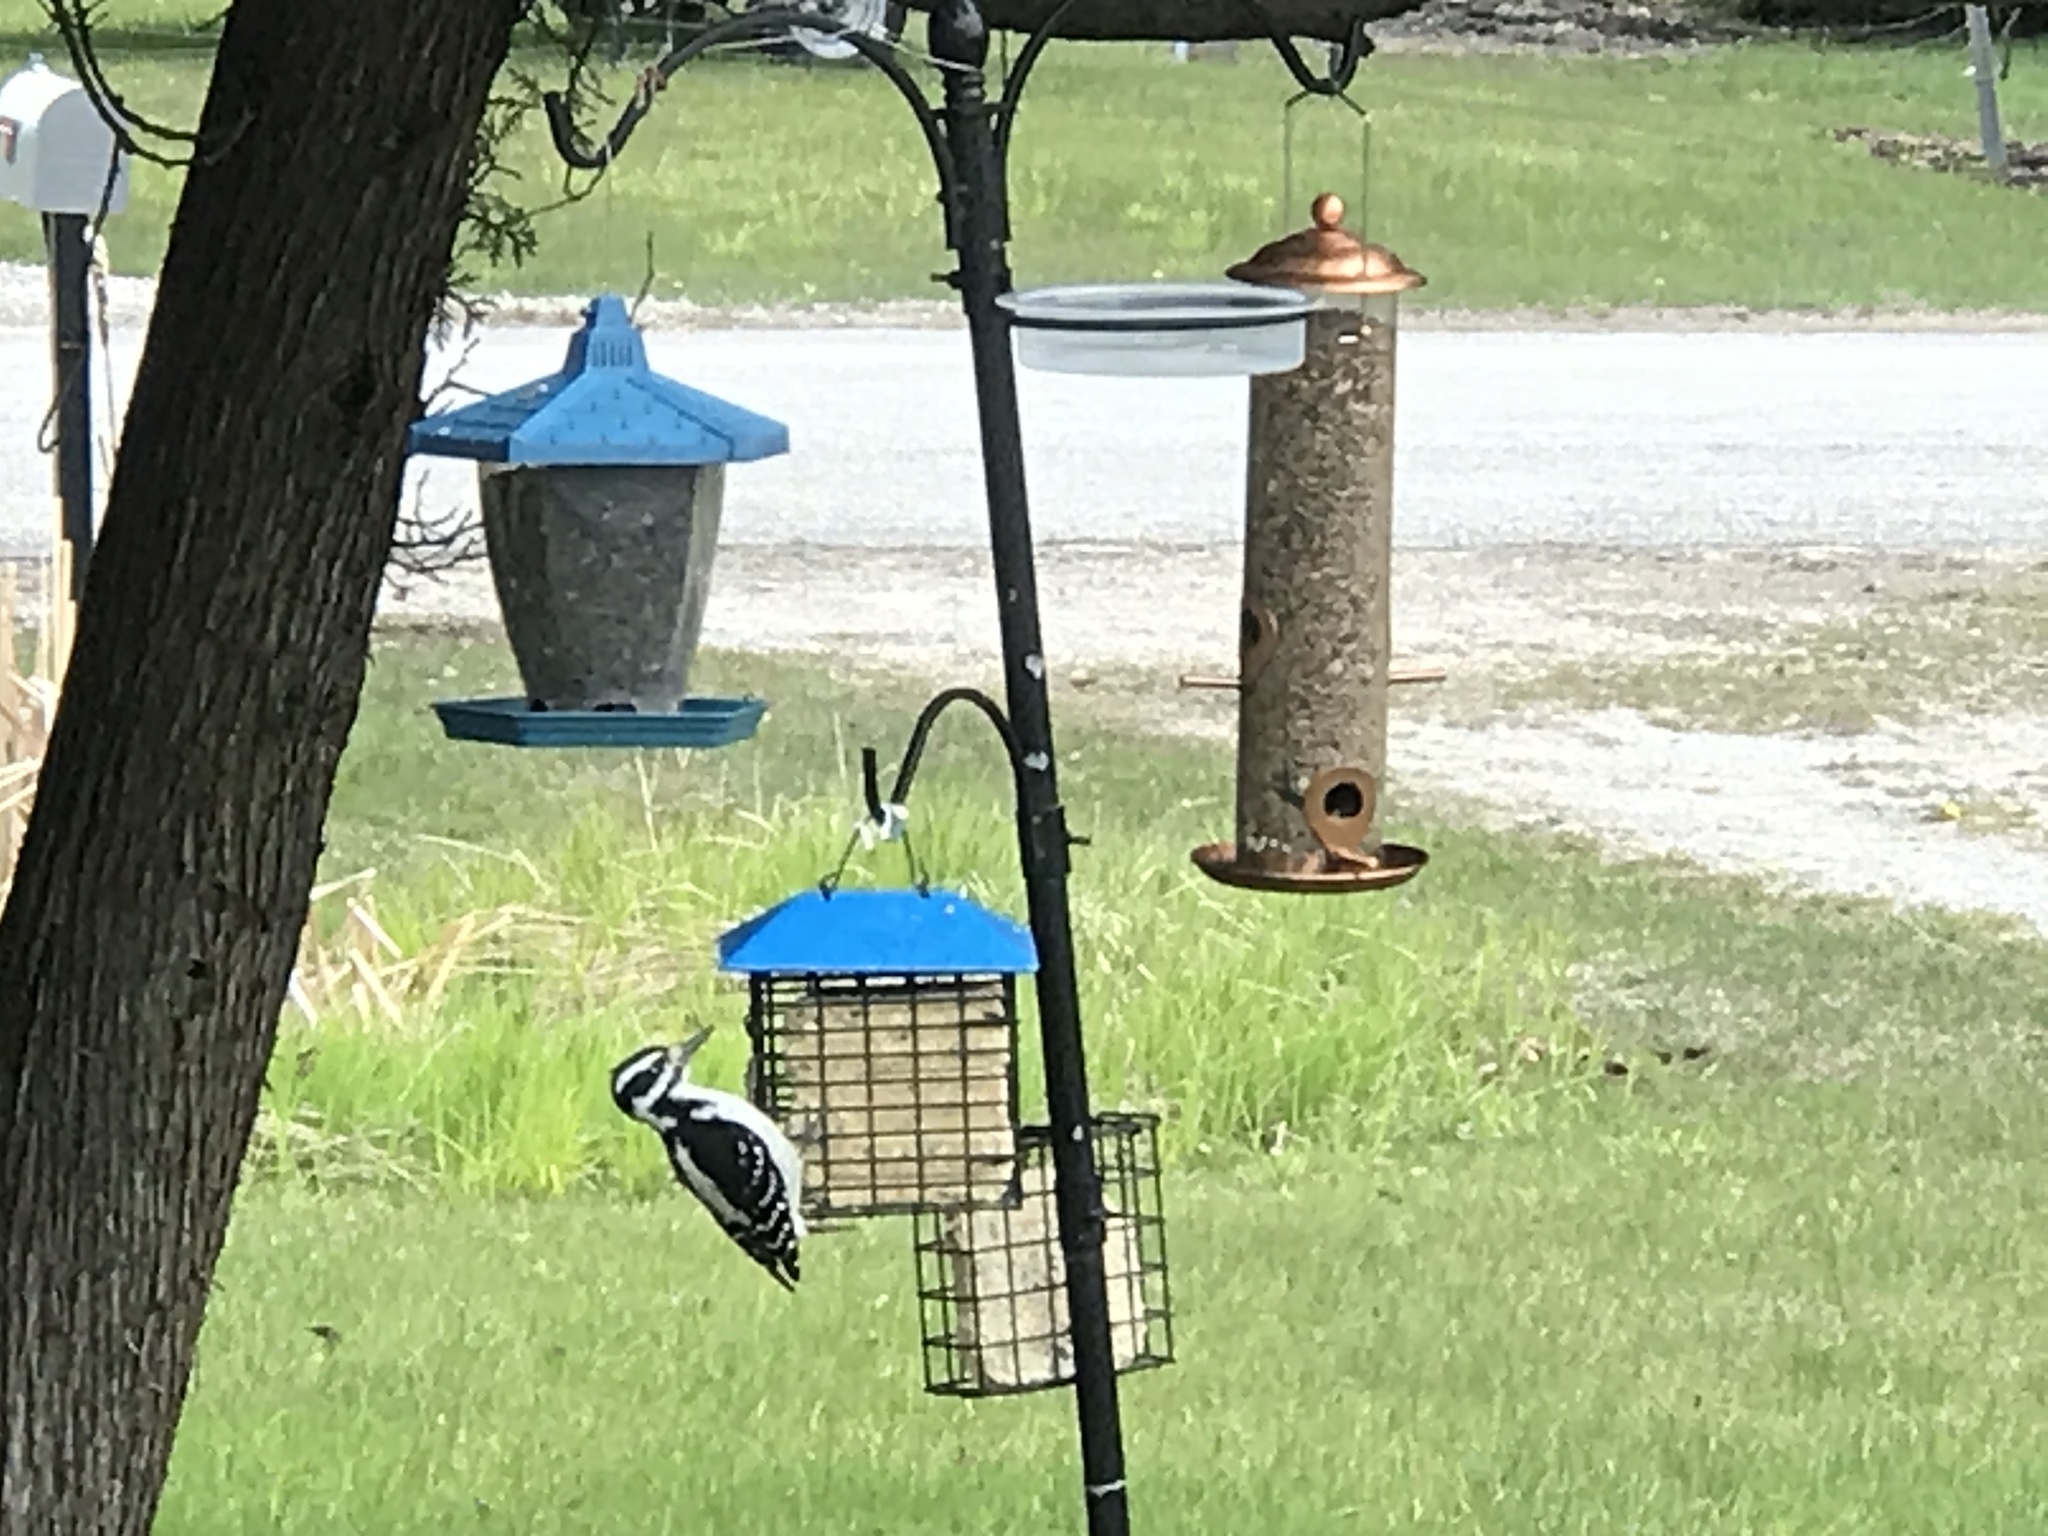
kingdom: Animalia
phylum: Chordata
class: Aves
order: Piciformes
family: Picidae
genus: Dryobates
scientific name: Dryobates pubescens
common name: Downy woodpecker
